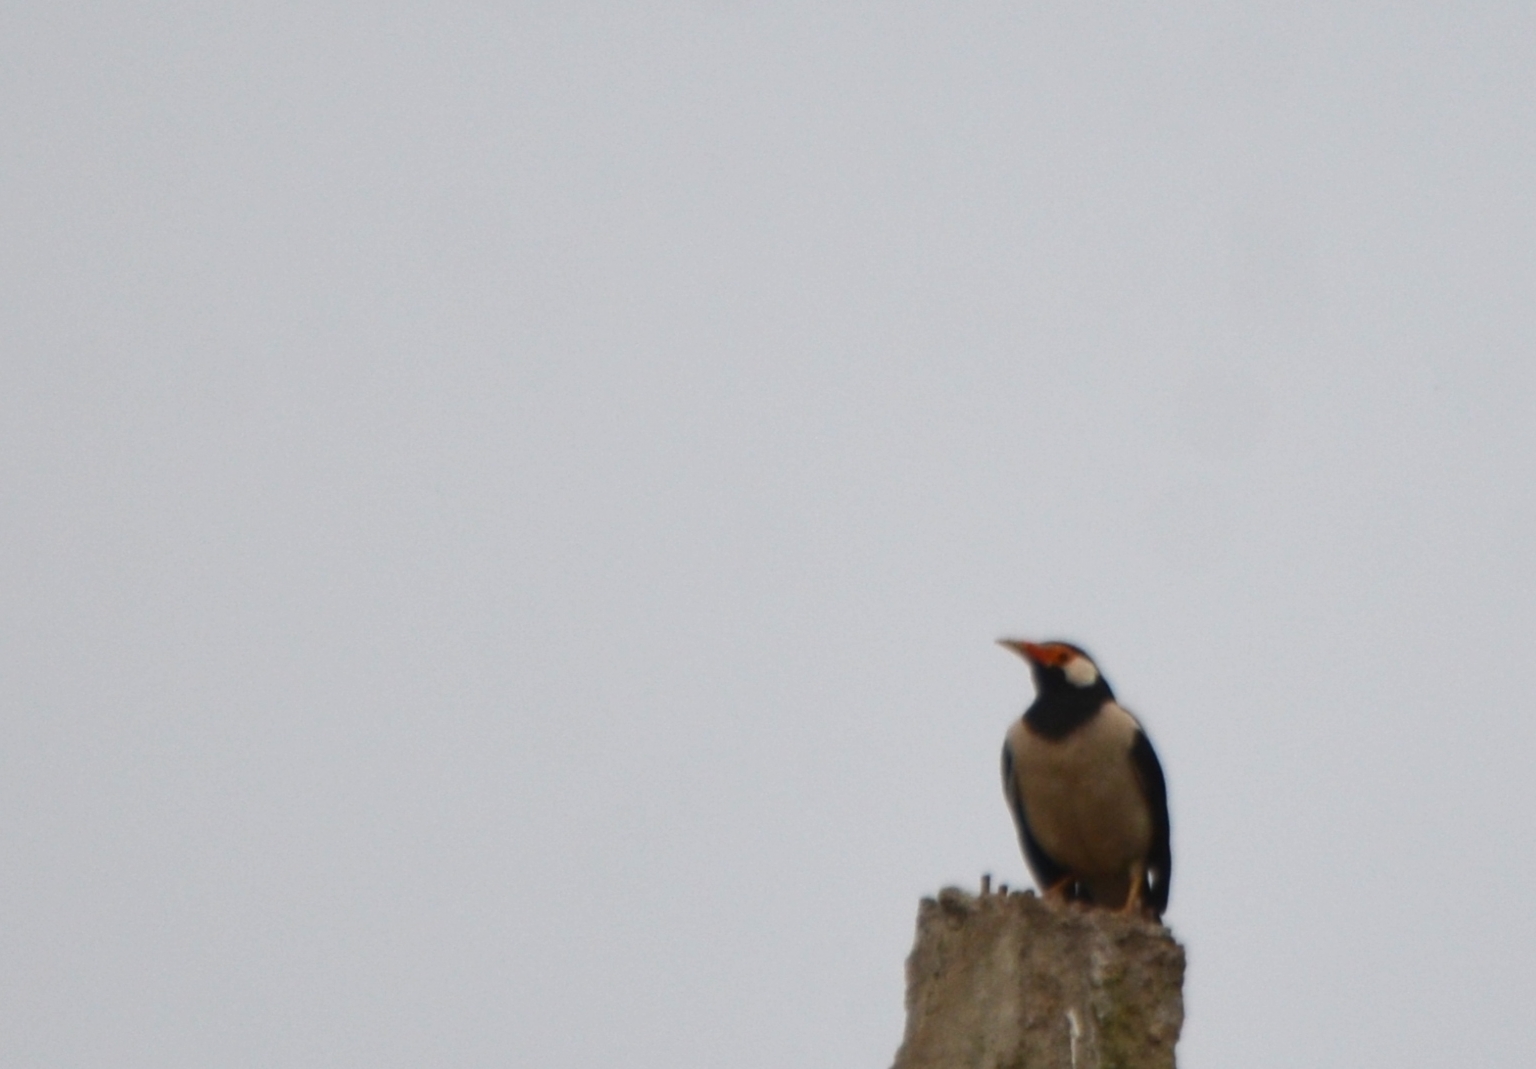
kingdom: Animalia
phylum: Chordata
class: Aves
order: Passeriformes
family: Sturnidae
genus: Gracupica
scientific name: Gracupica contra
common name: Pied myna
